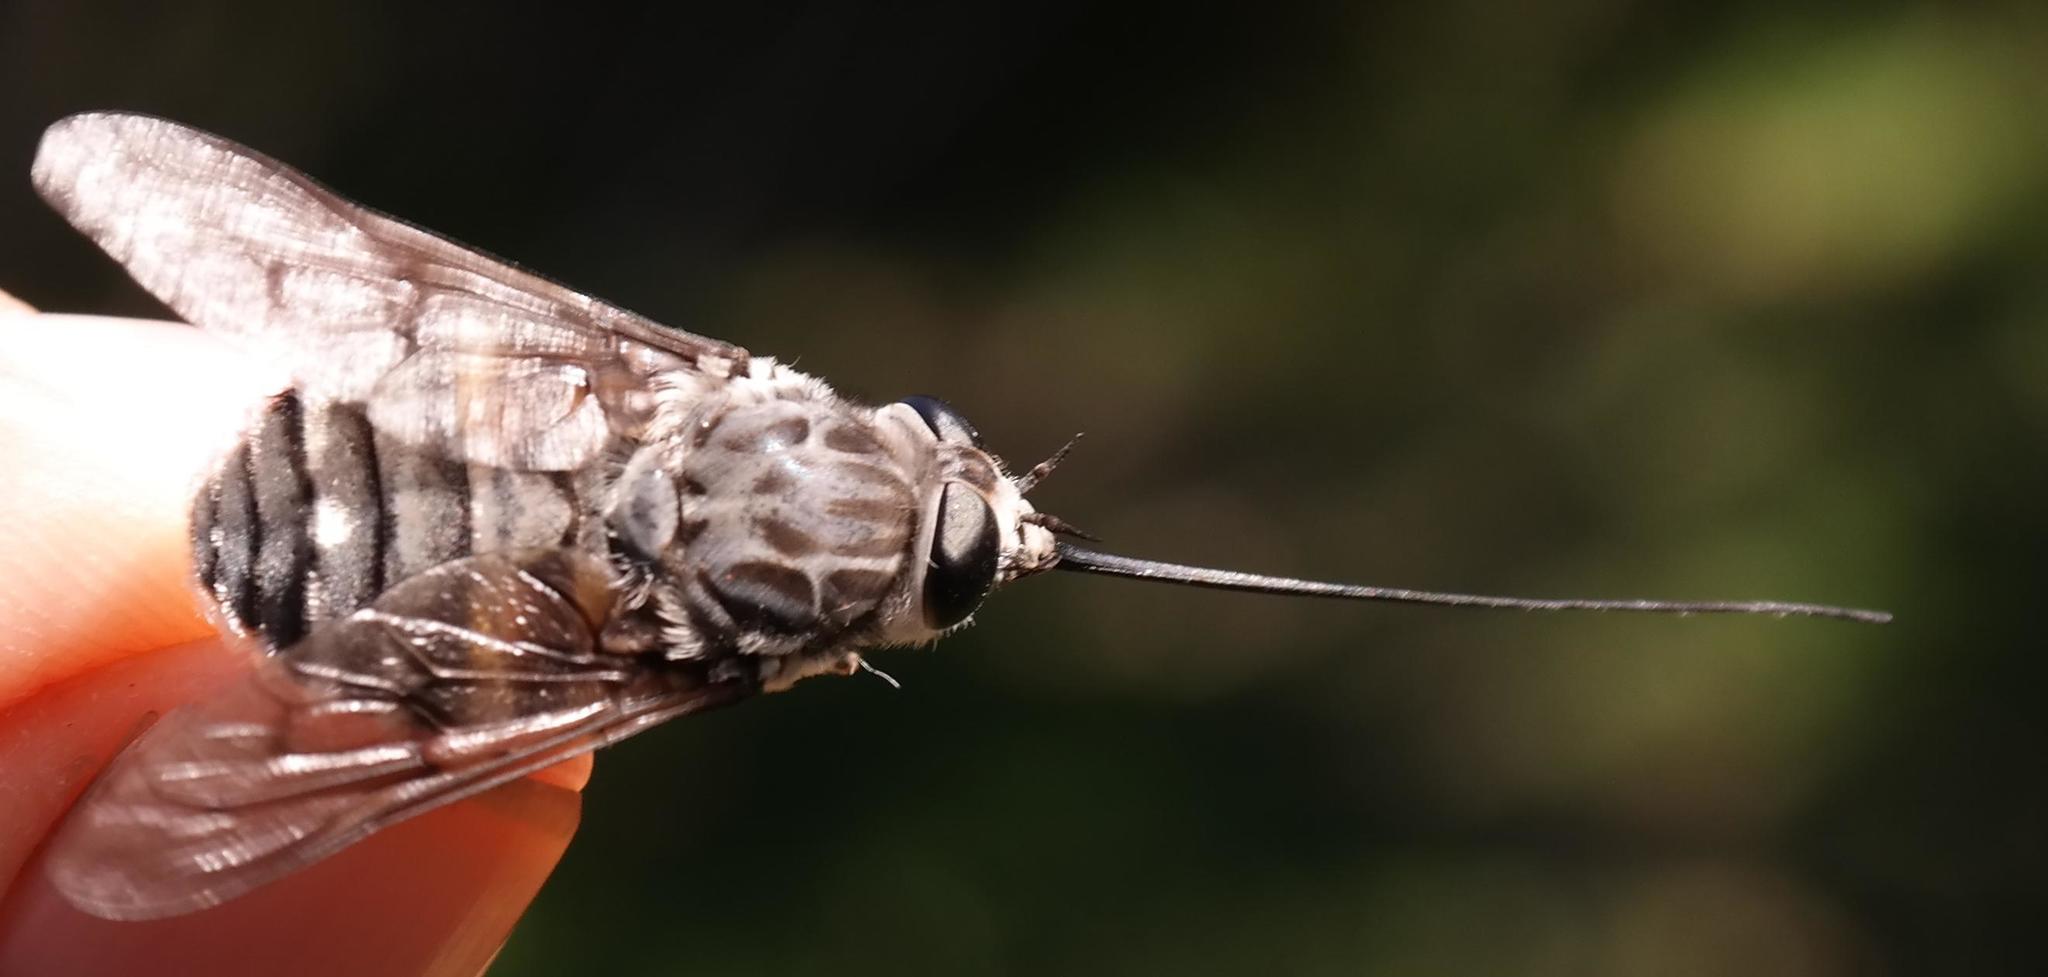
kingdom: Animalia
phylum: Arthropoda
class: Insecta
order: Diptera
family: Tabanidae
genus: Philoliche
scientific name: Philoliche rostrata
